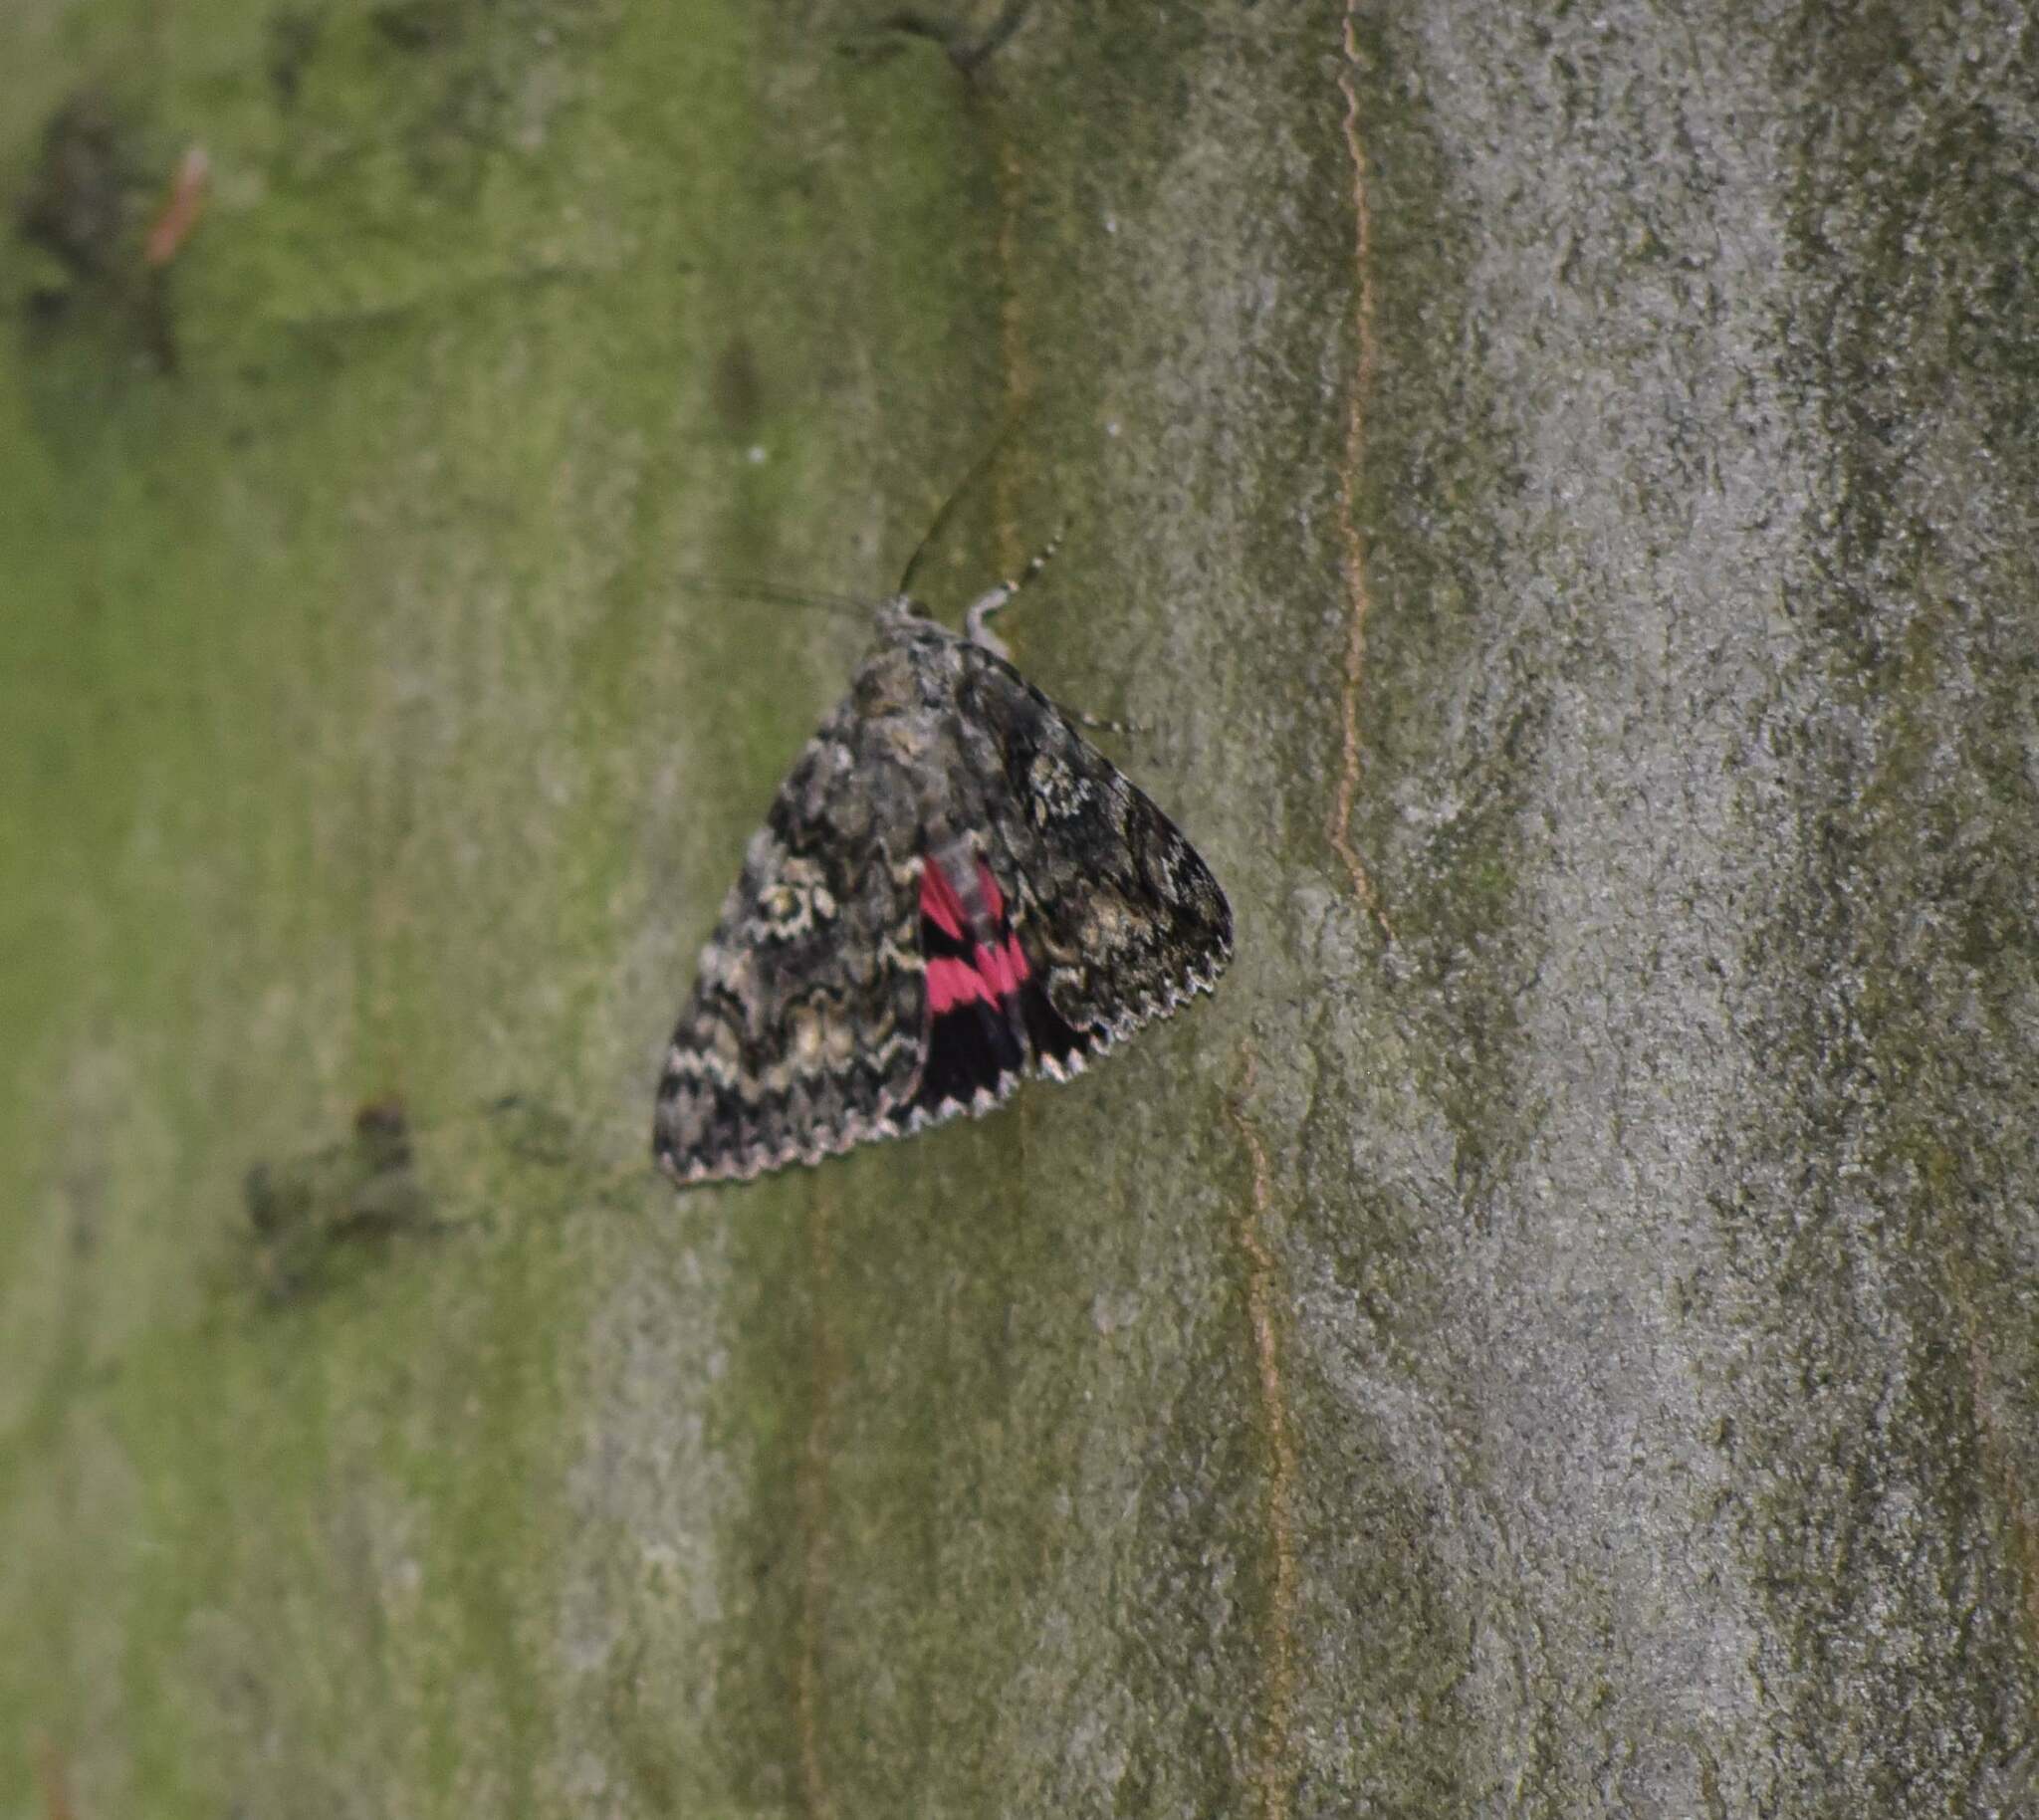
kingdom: Animalia
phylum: Arthropoda
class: Insecta
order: Lepidoptera
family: Erebidae
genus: Catocala
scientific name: Catocala sponsa
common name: Dark crimson underwing
